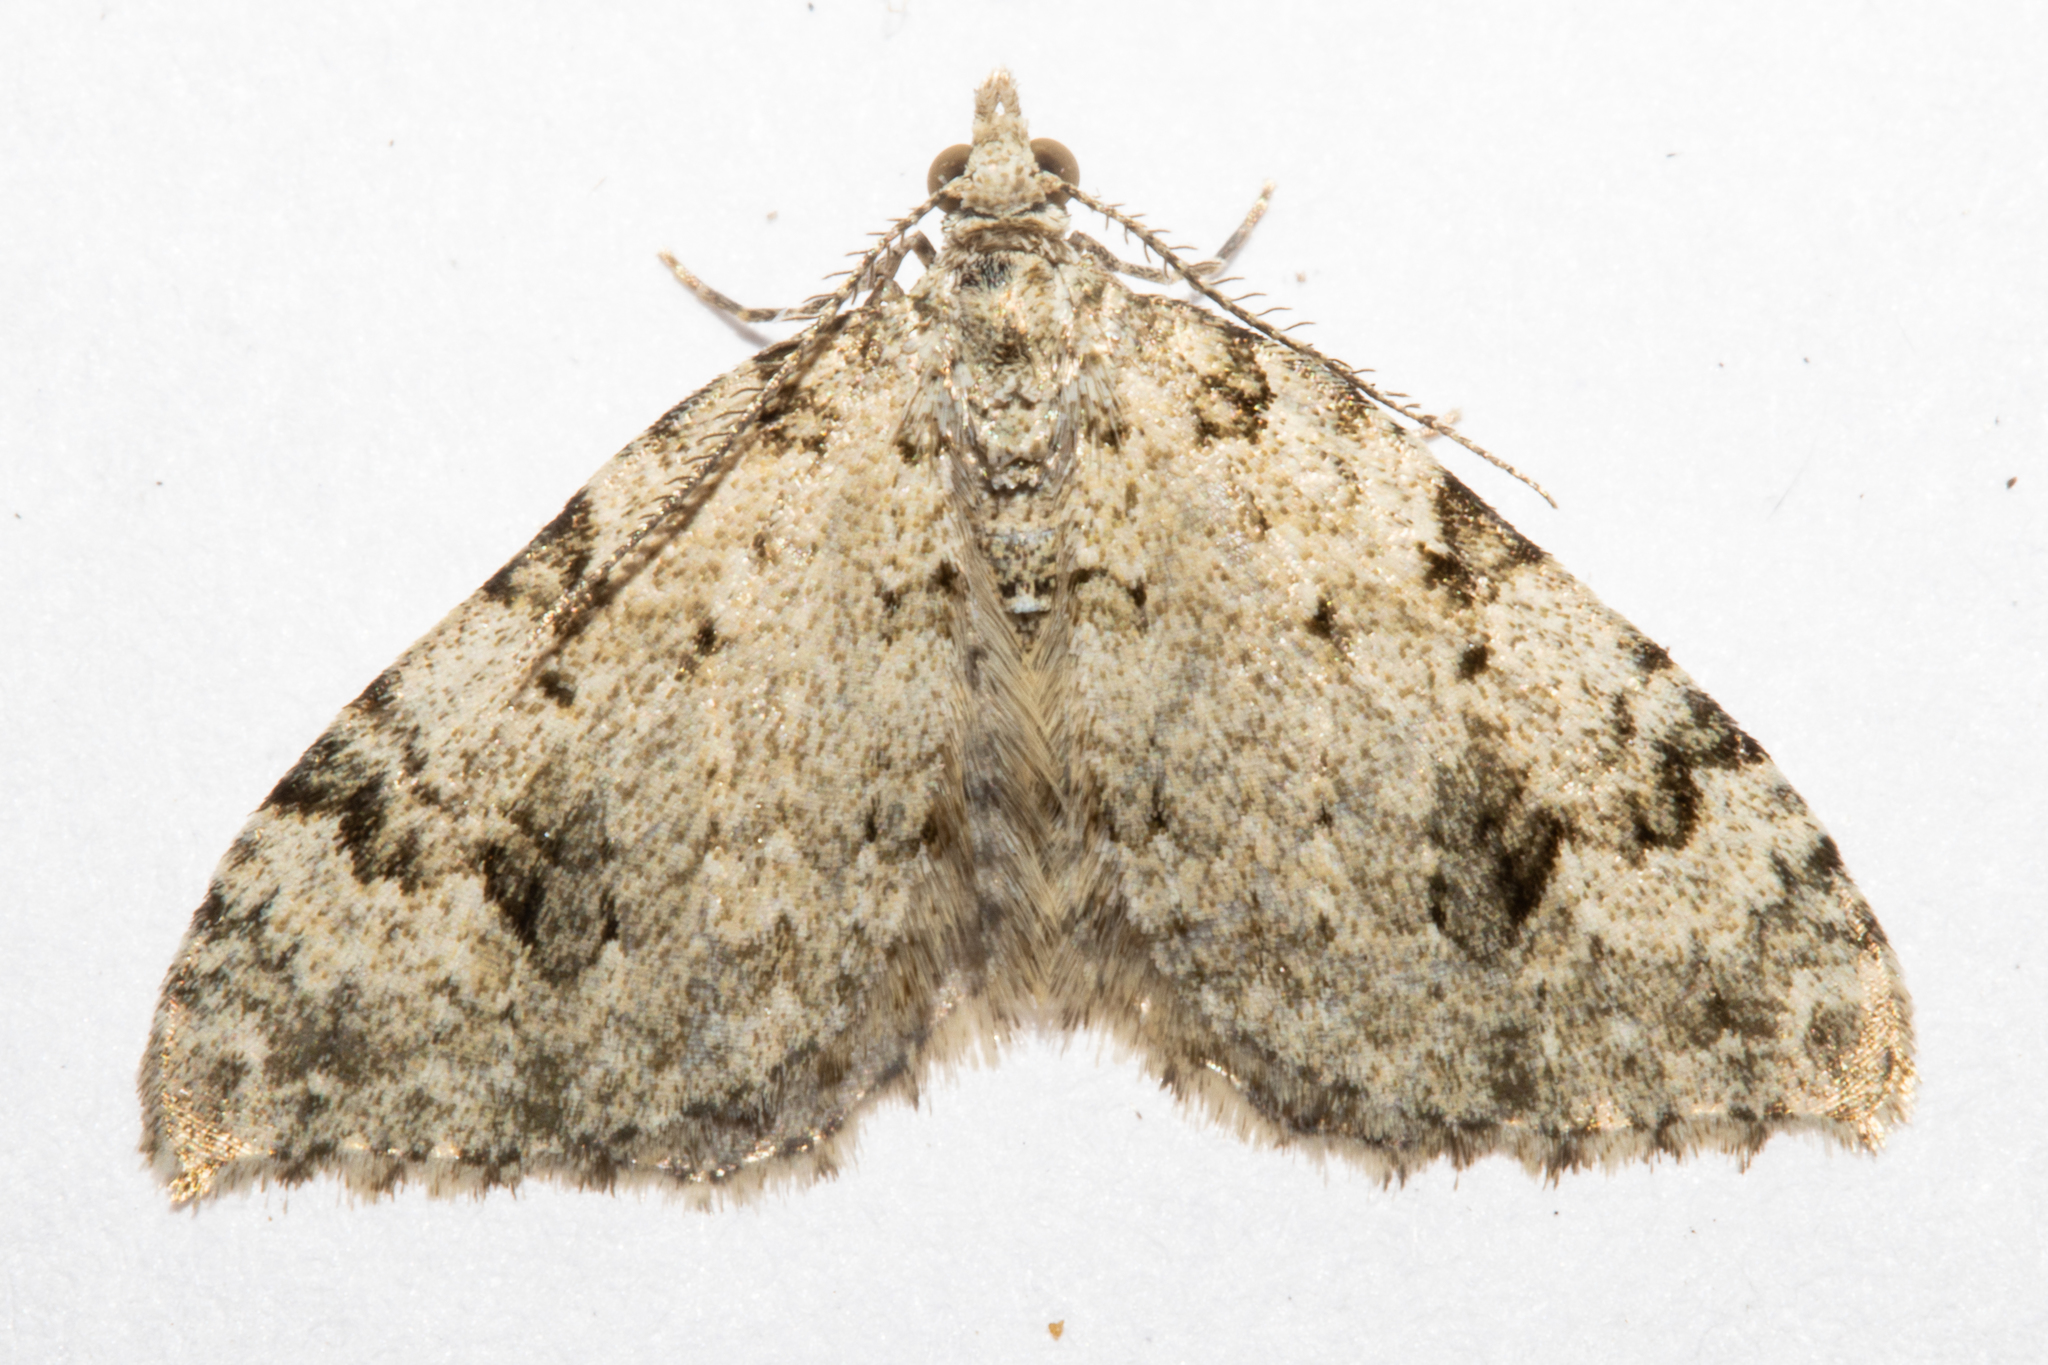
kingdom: Animalia
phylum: Arthropoda
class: Insecta
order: Lepidoptera
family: Geometridae
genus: Helastia
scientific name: Helastia cinerearia
